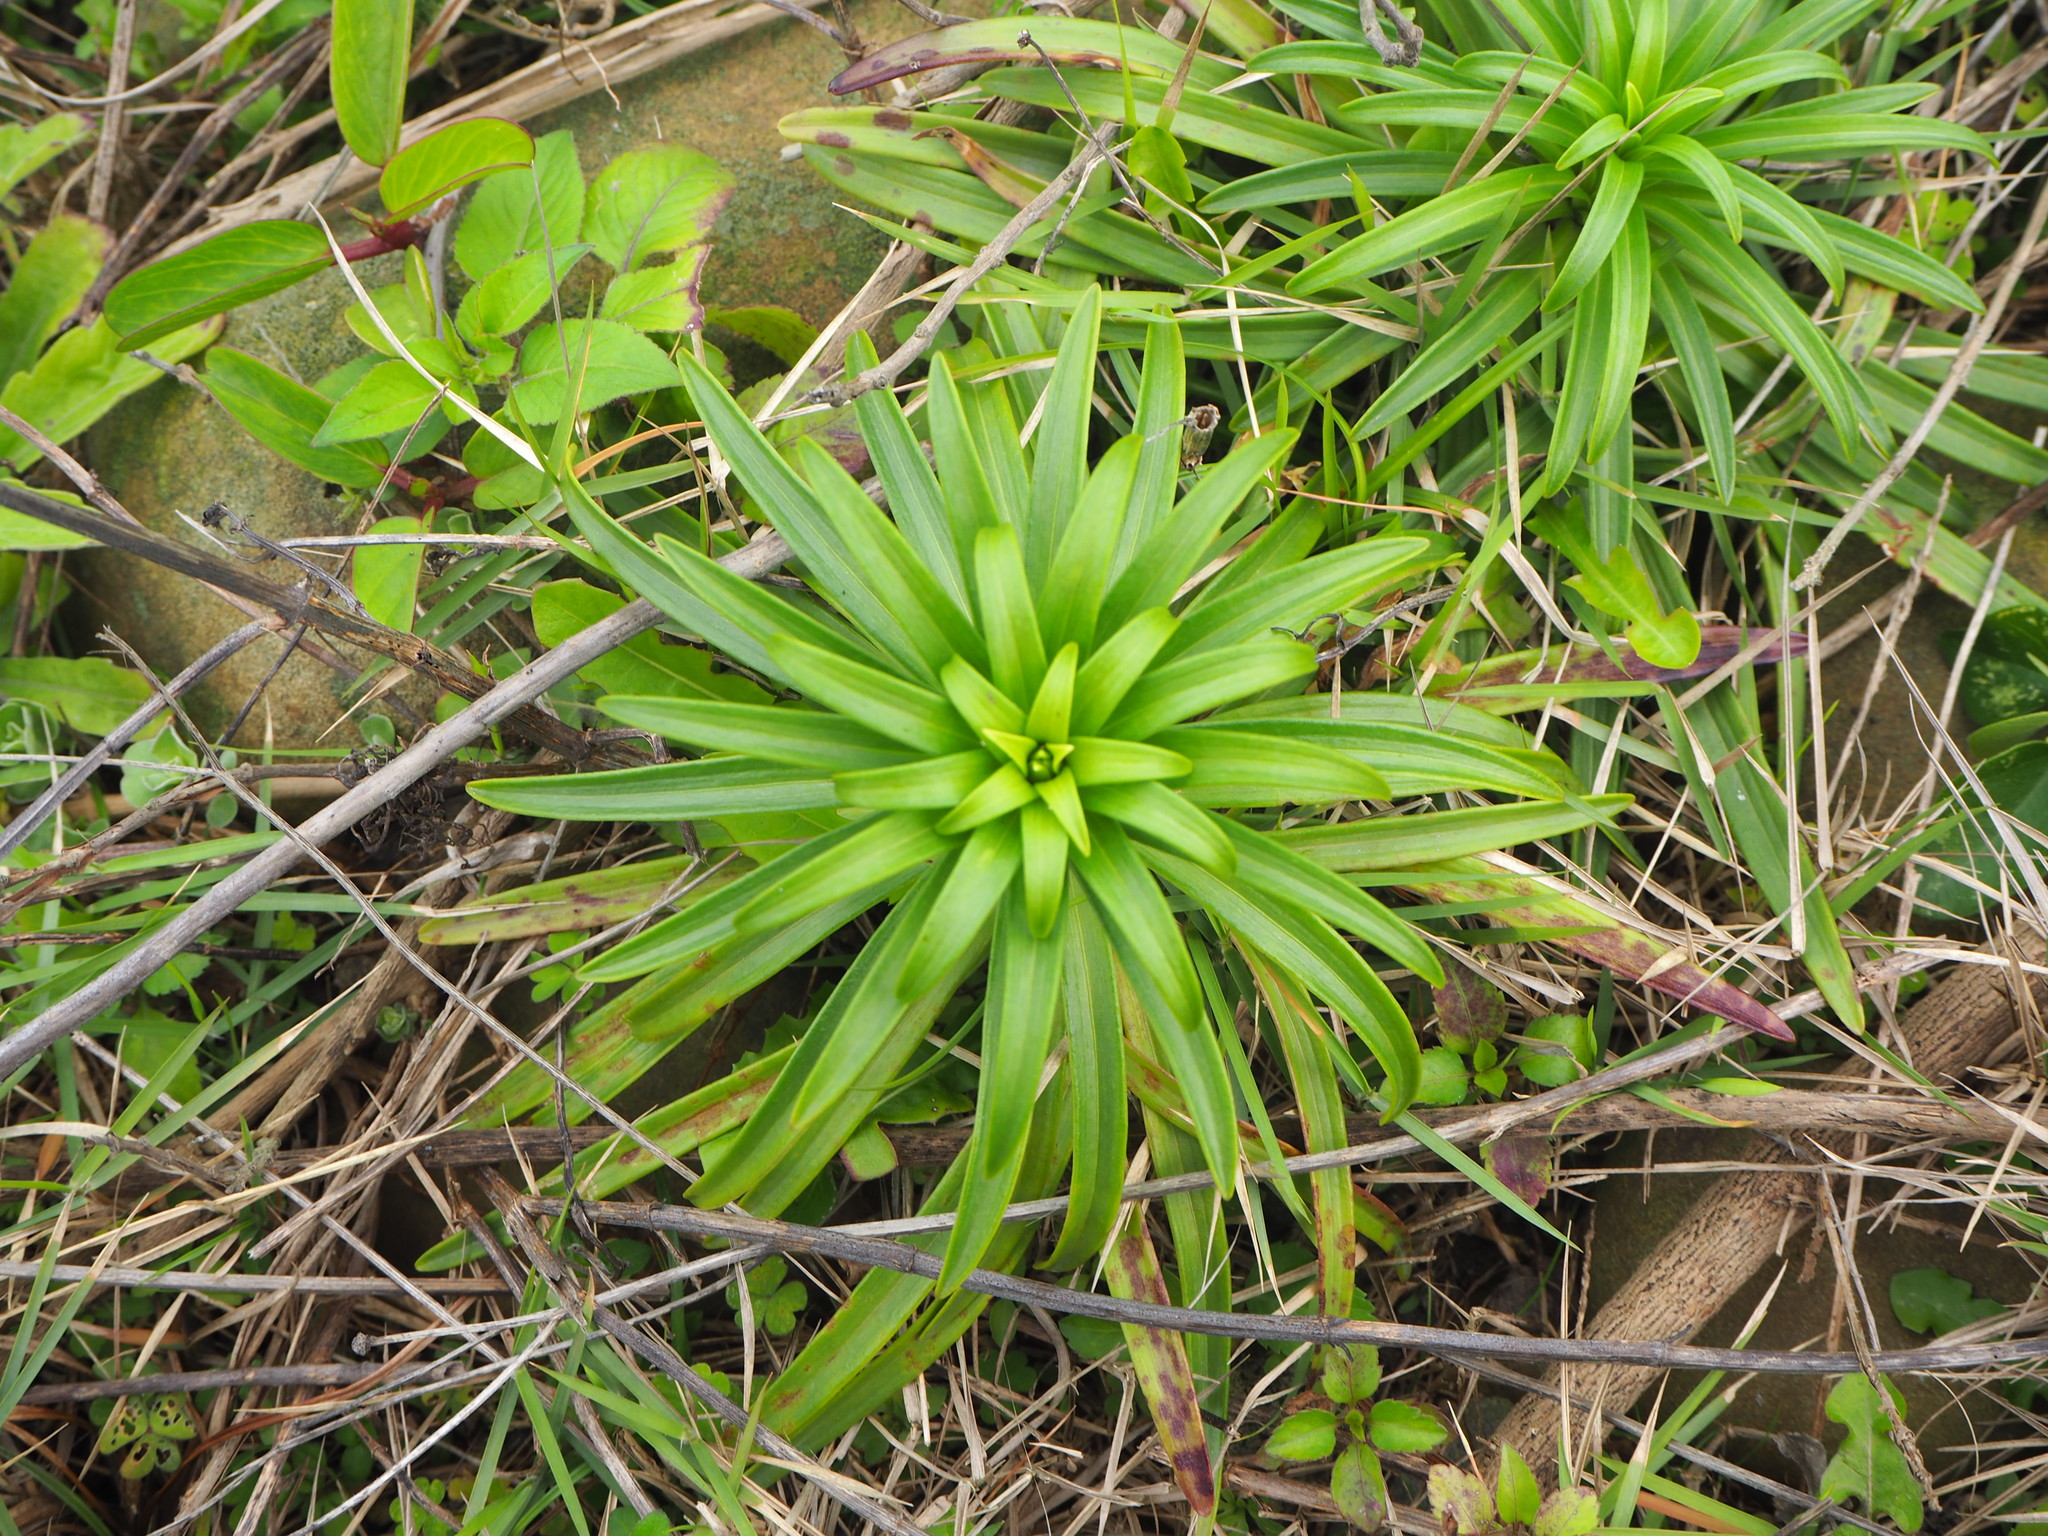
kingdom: Plantae
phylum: Tracheophyta
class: Liliopsida
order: Liliales
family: Liliaceae
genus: Lilium
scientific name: Lilium longiflorum
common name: Easter lily
